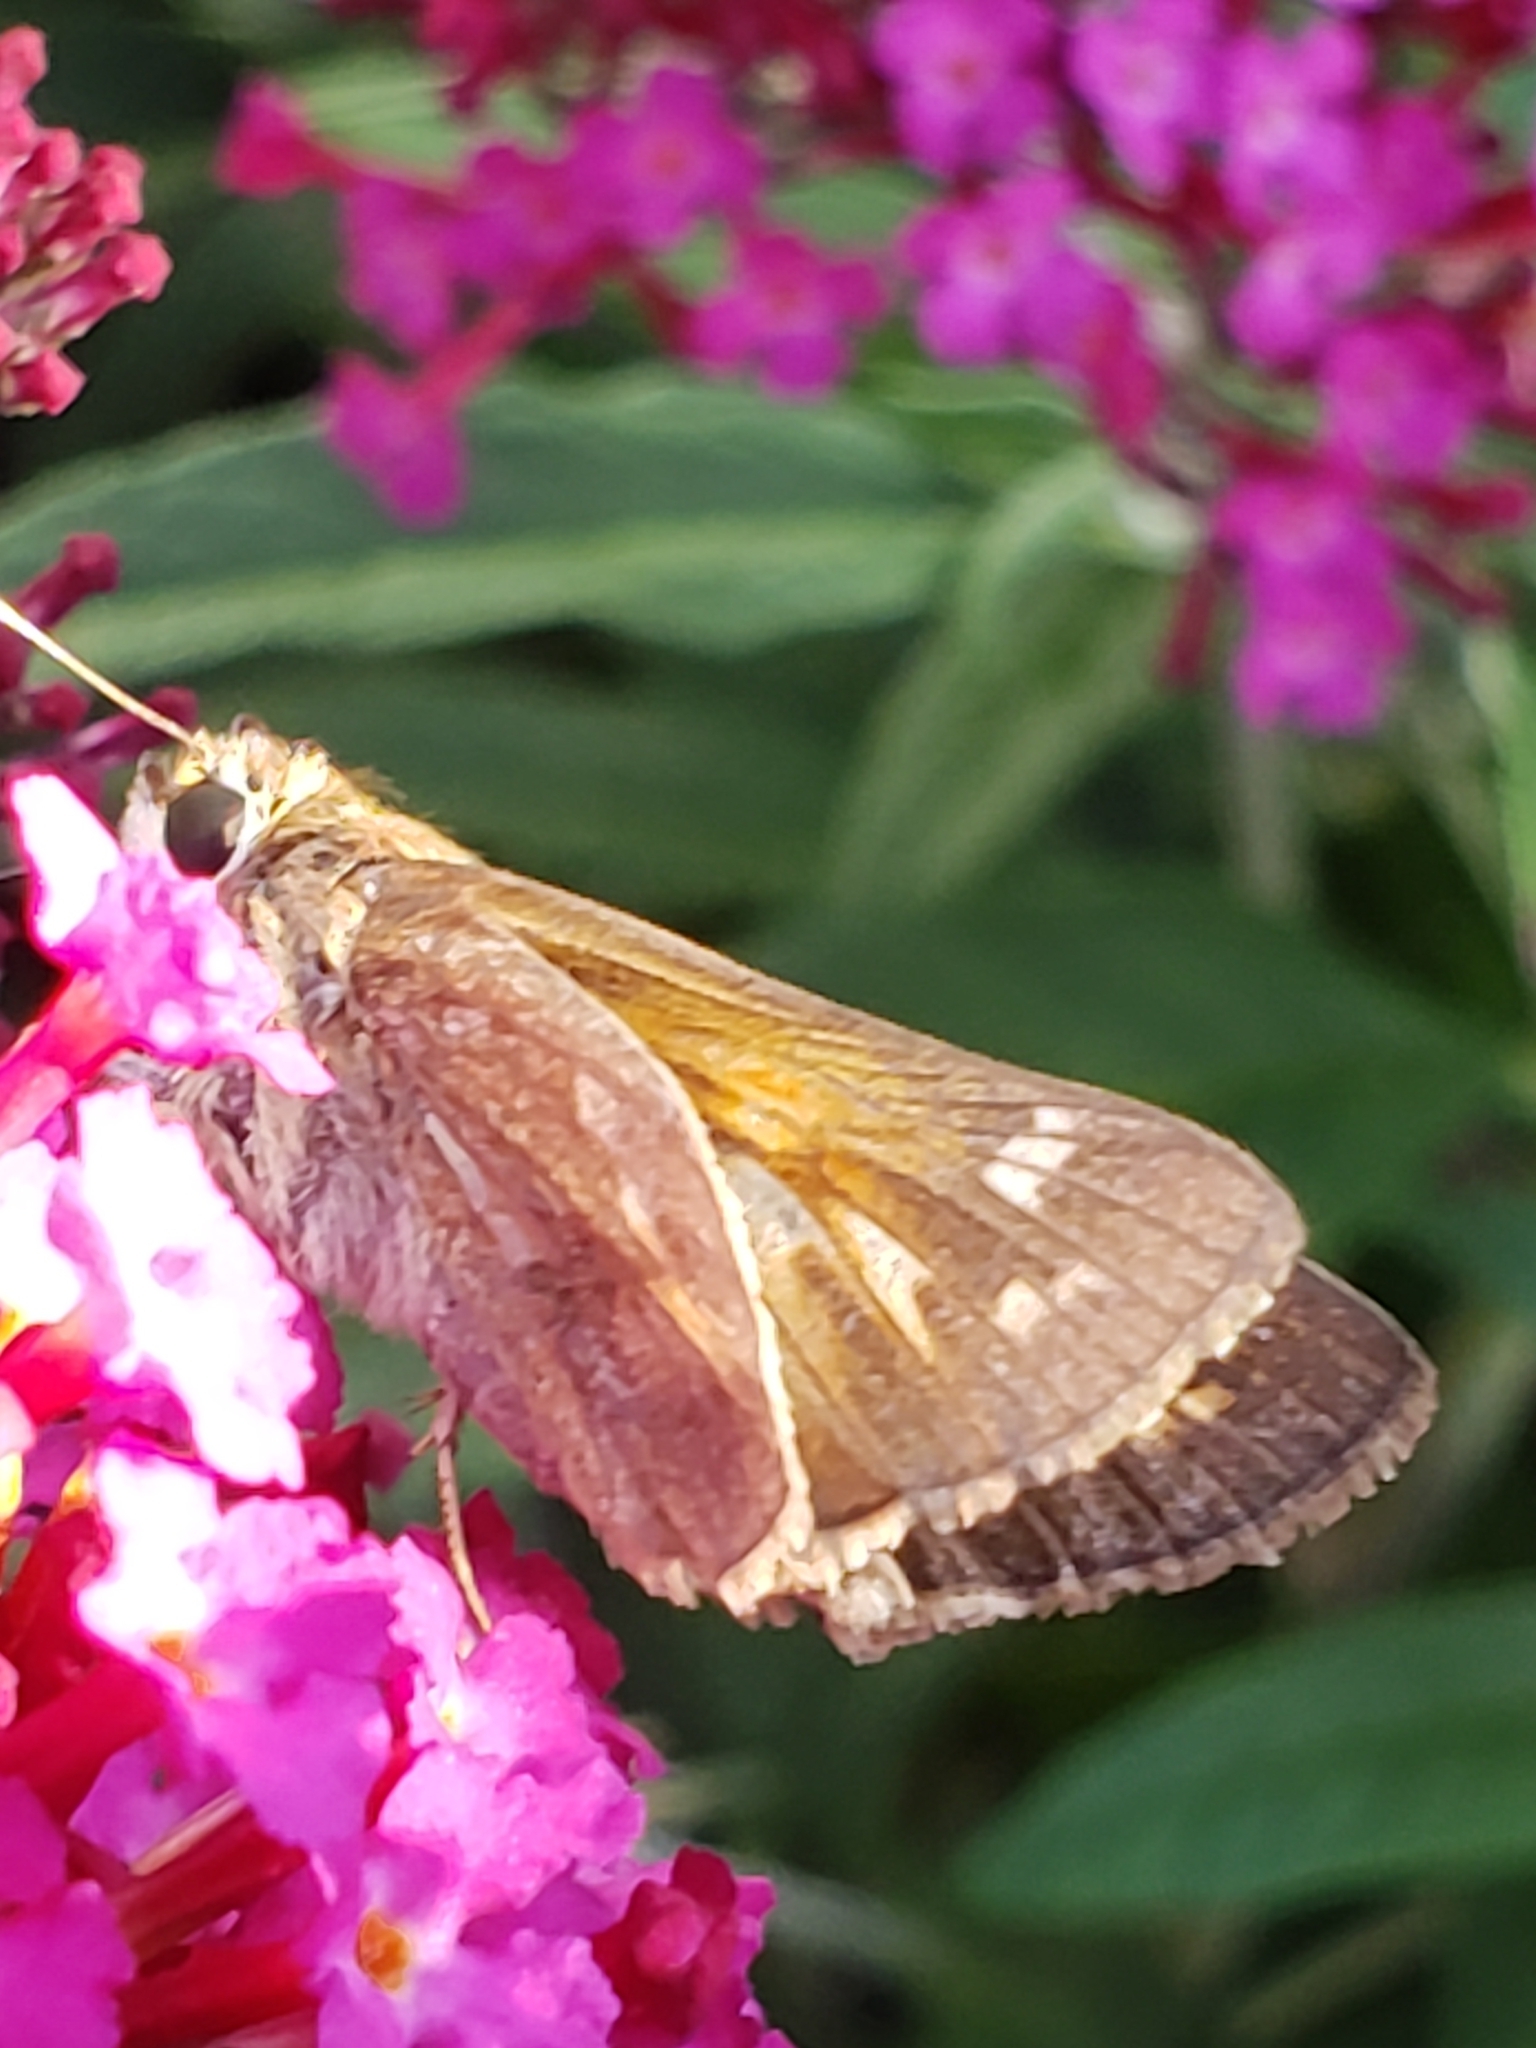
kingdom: Animalia
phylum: Arthropoda
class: Insecta
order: Lepidoptera
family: Hesperiidae
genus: Atalopedes
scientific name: Atalopedes
